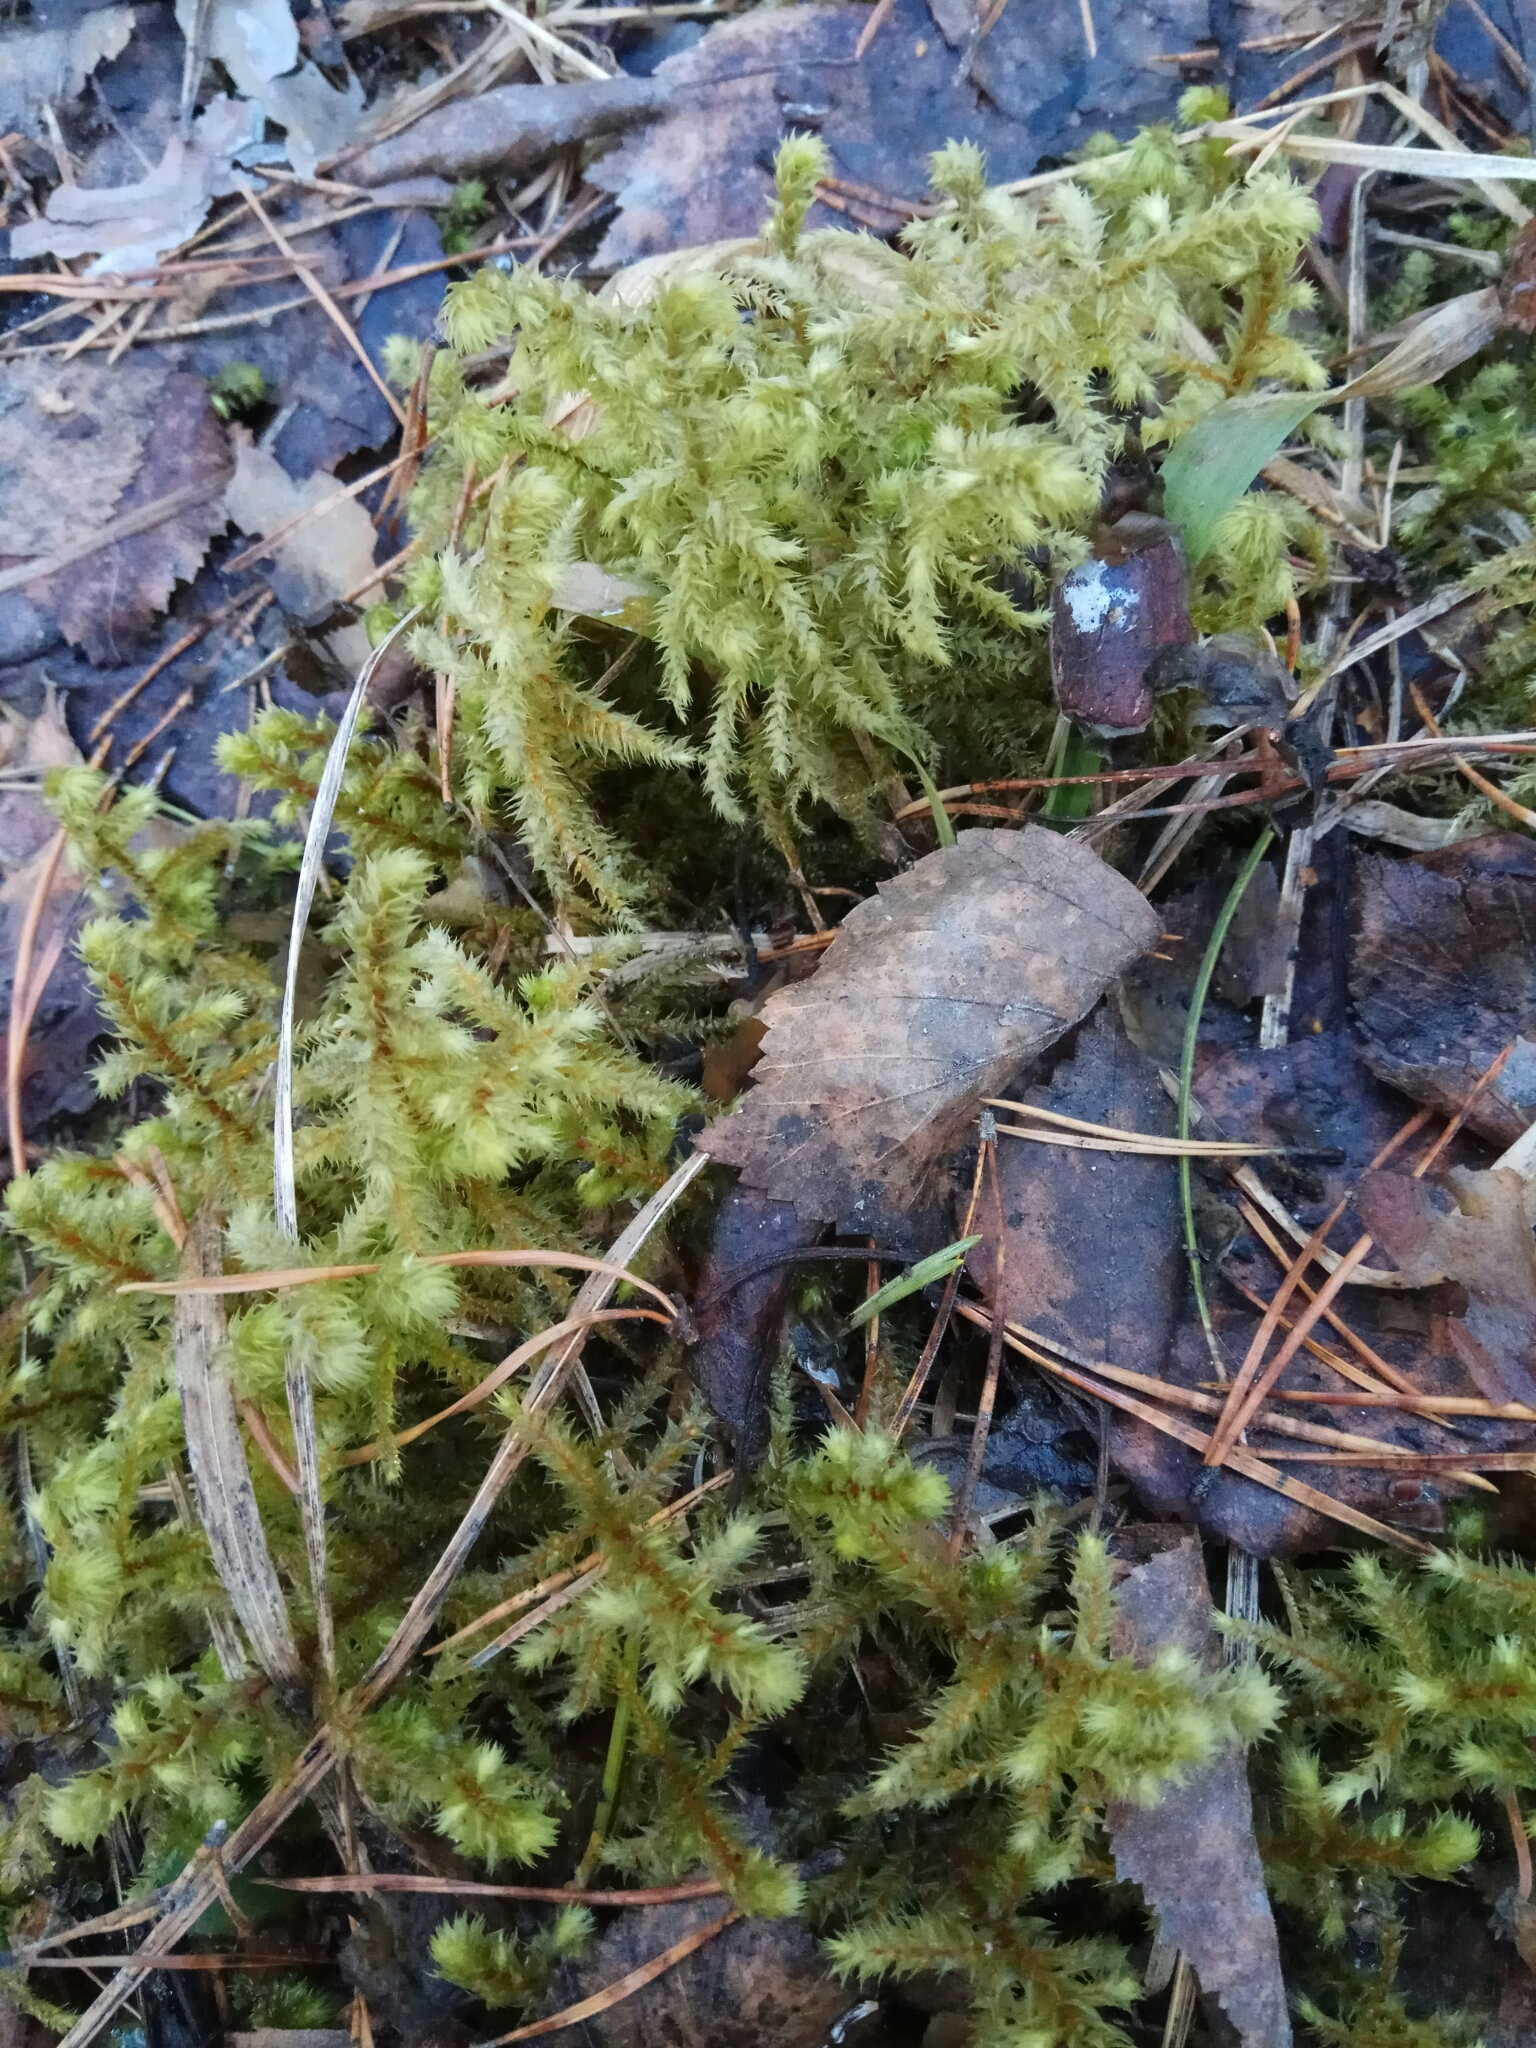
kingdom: Plantae
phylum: Bryophyta
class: Bryopsida
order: Hypnales
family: Hylocomiaceae
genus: Hylocomiadelphus
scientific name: Hylocomiadelphus triquetrus
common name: Rough goose neck moss
